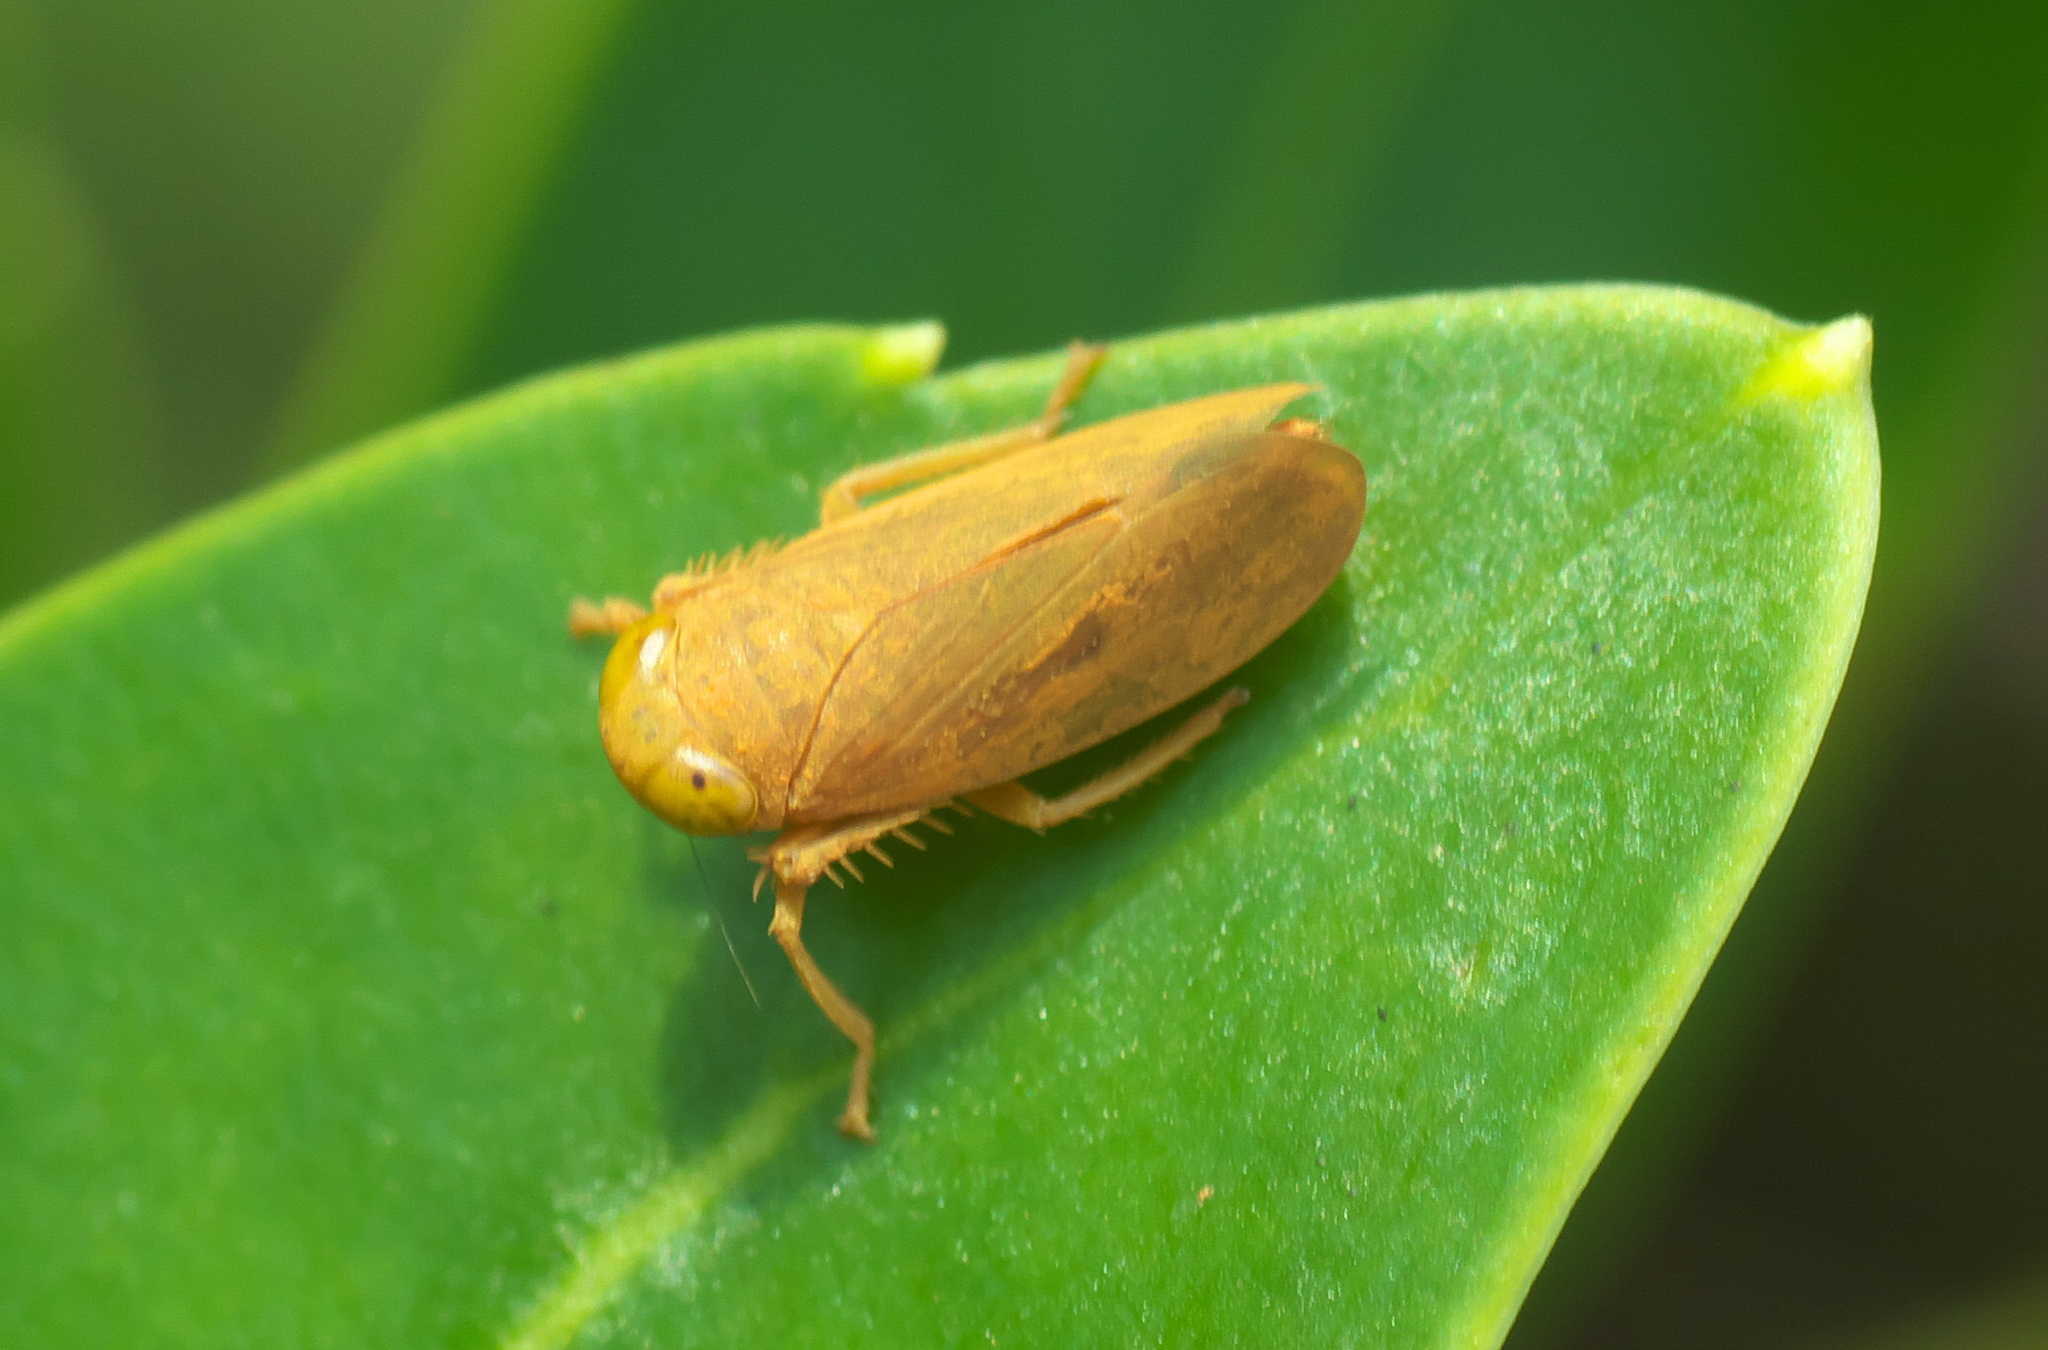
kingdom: Animalia
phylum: Arthropoda
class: Insecta
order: Hemiptera
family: Cicadellidae
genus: Jikradia
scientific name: Jikradia olitoria
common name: Coppery leafhopper
